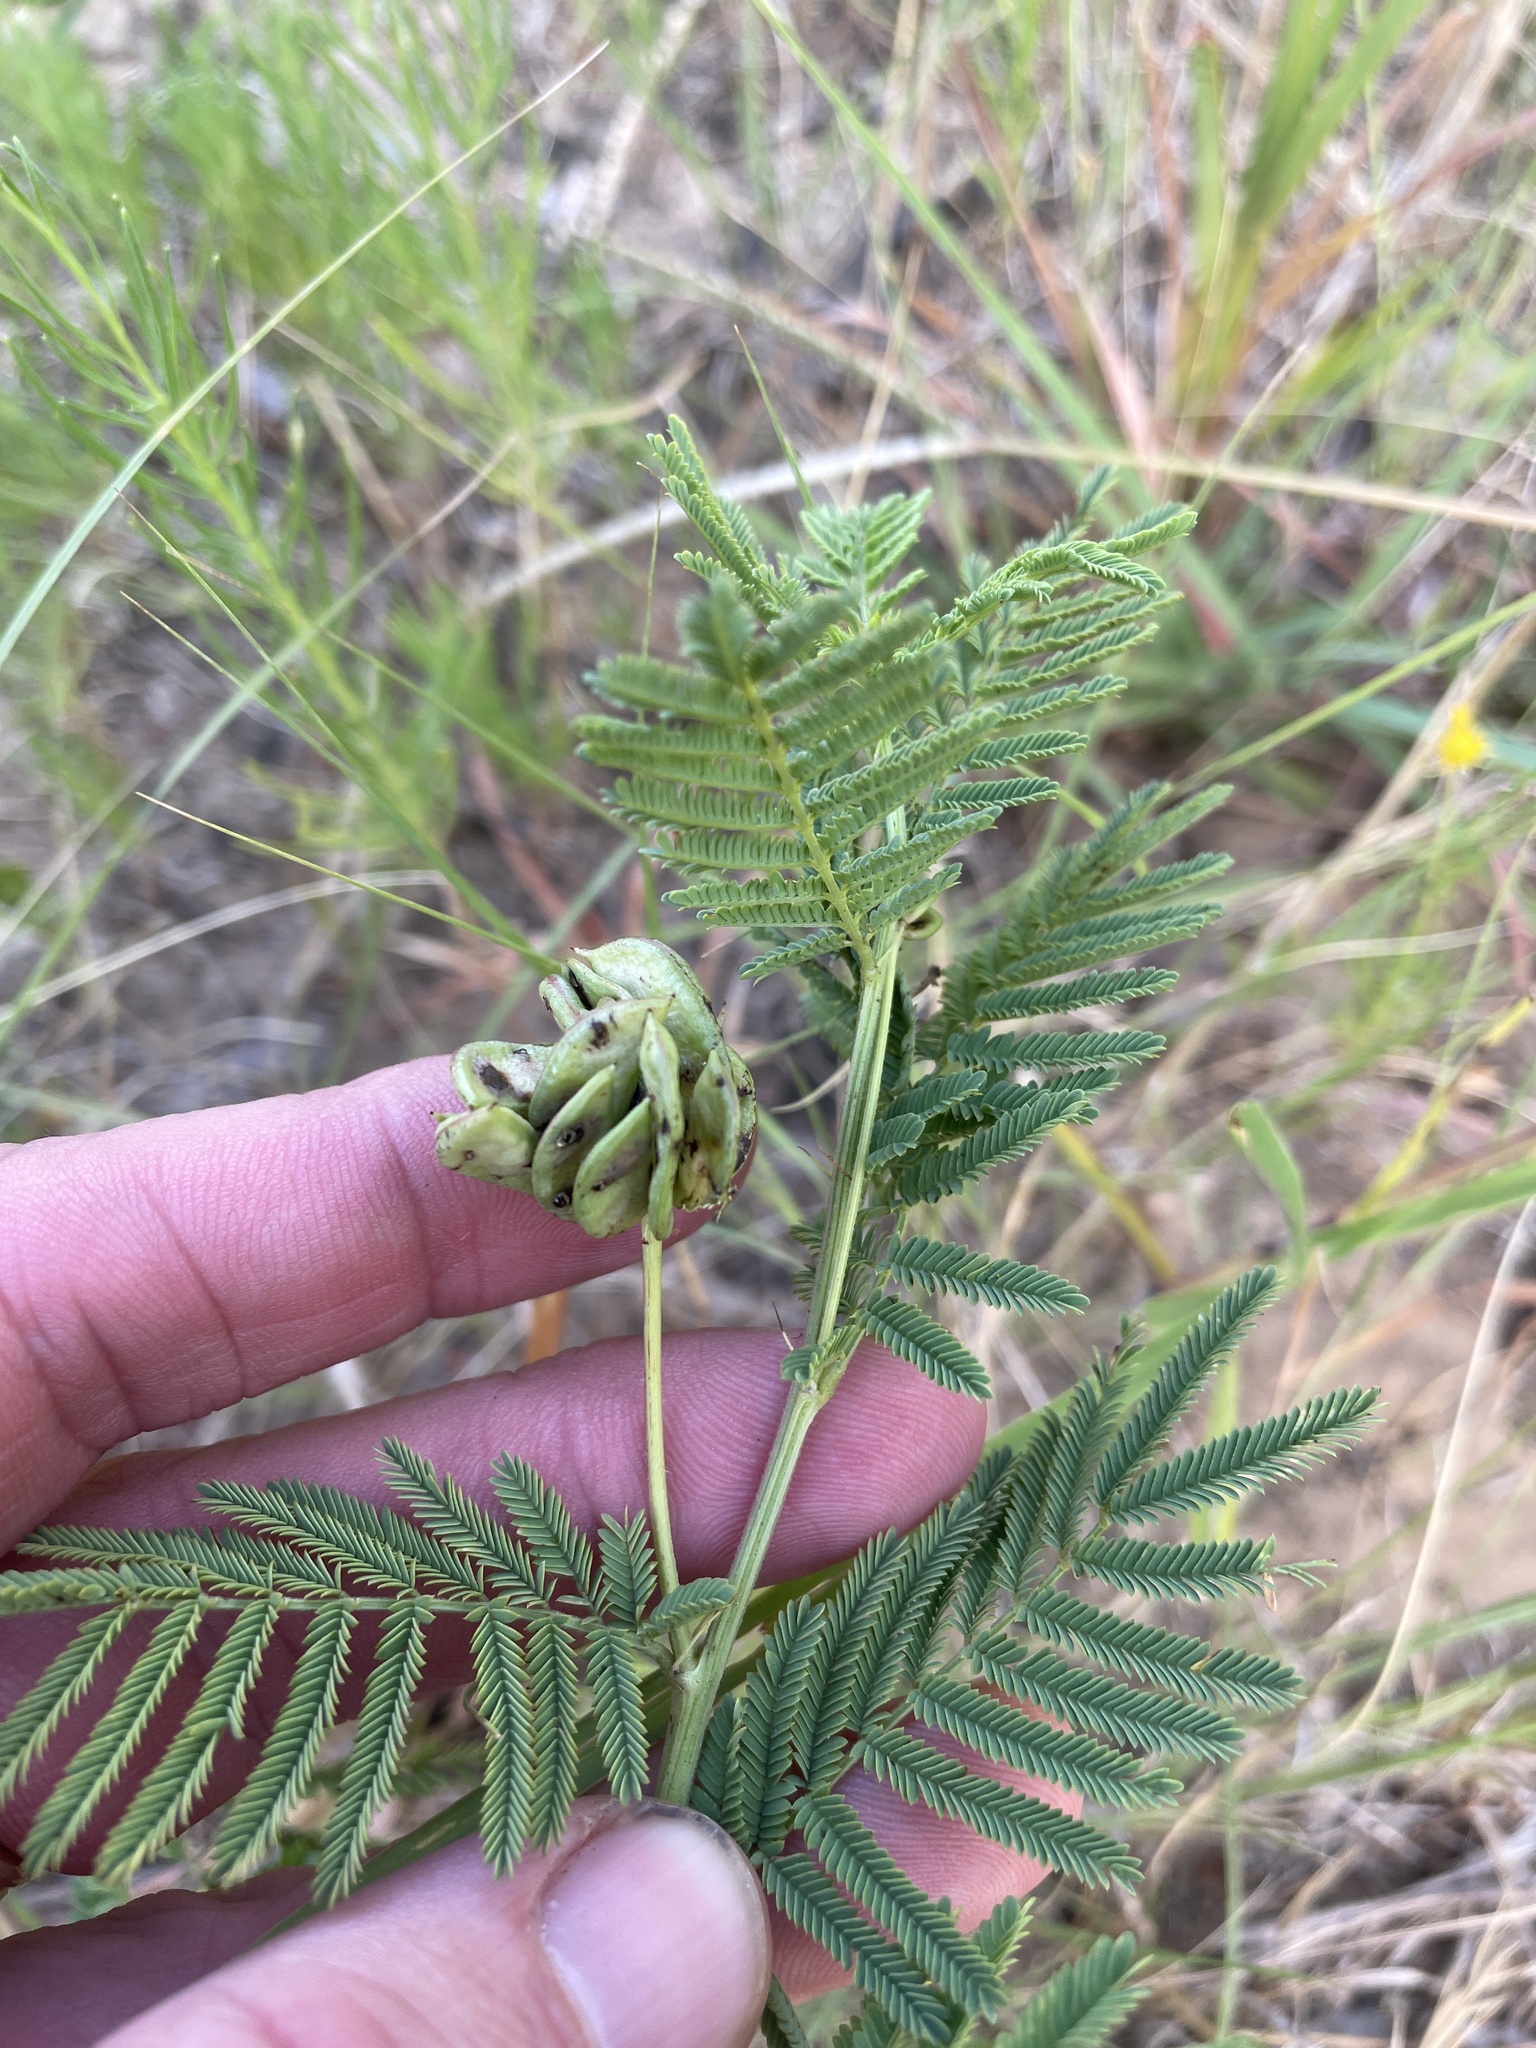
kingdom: Plantae
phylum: Tracheophyta
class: Magnoliopsida
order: Fabales
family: Fabaceae
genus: Desmanthus
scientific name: Desmanthus illinoensis
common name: Illinois bundle-flower
